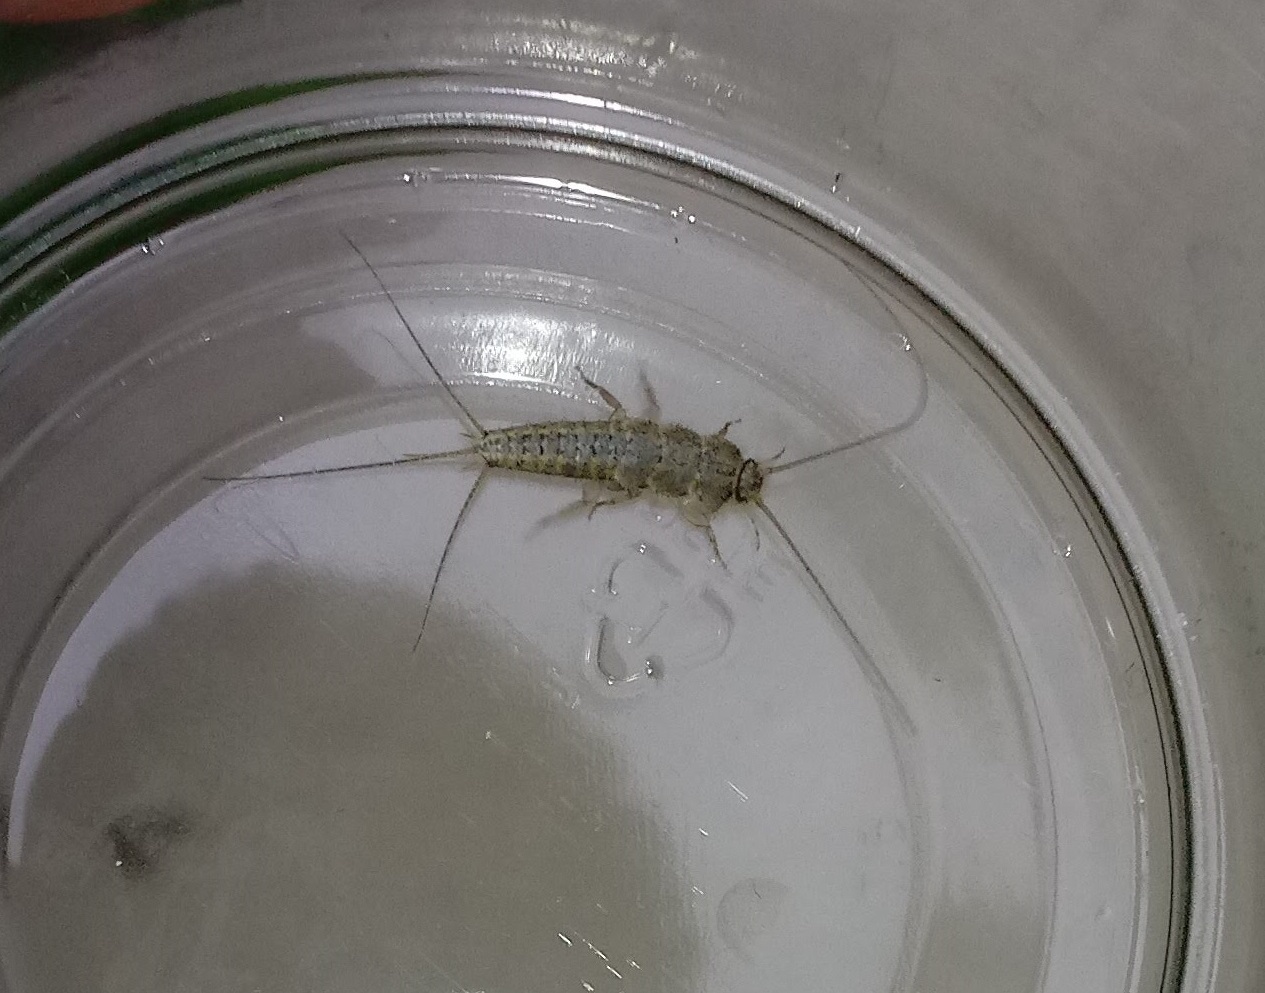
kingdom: Animalia
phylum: Arthropoda
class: Insecta
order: Zygentoma
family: Lepismatidae
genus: Ctenolepisma
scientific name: Ctenolepisma lineata
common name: Four-lined silverfish
